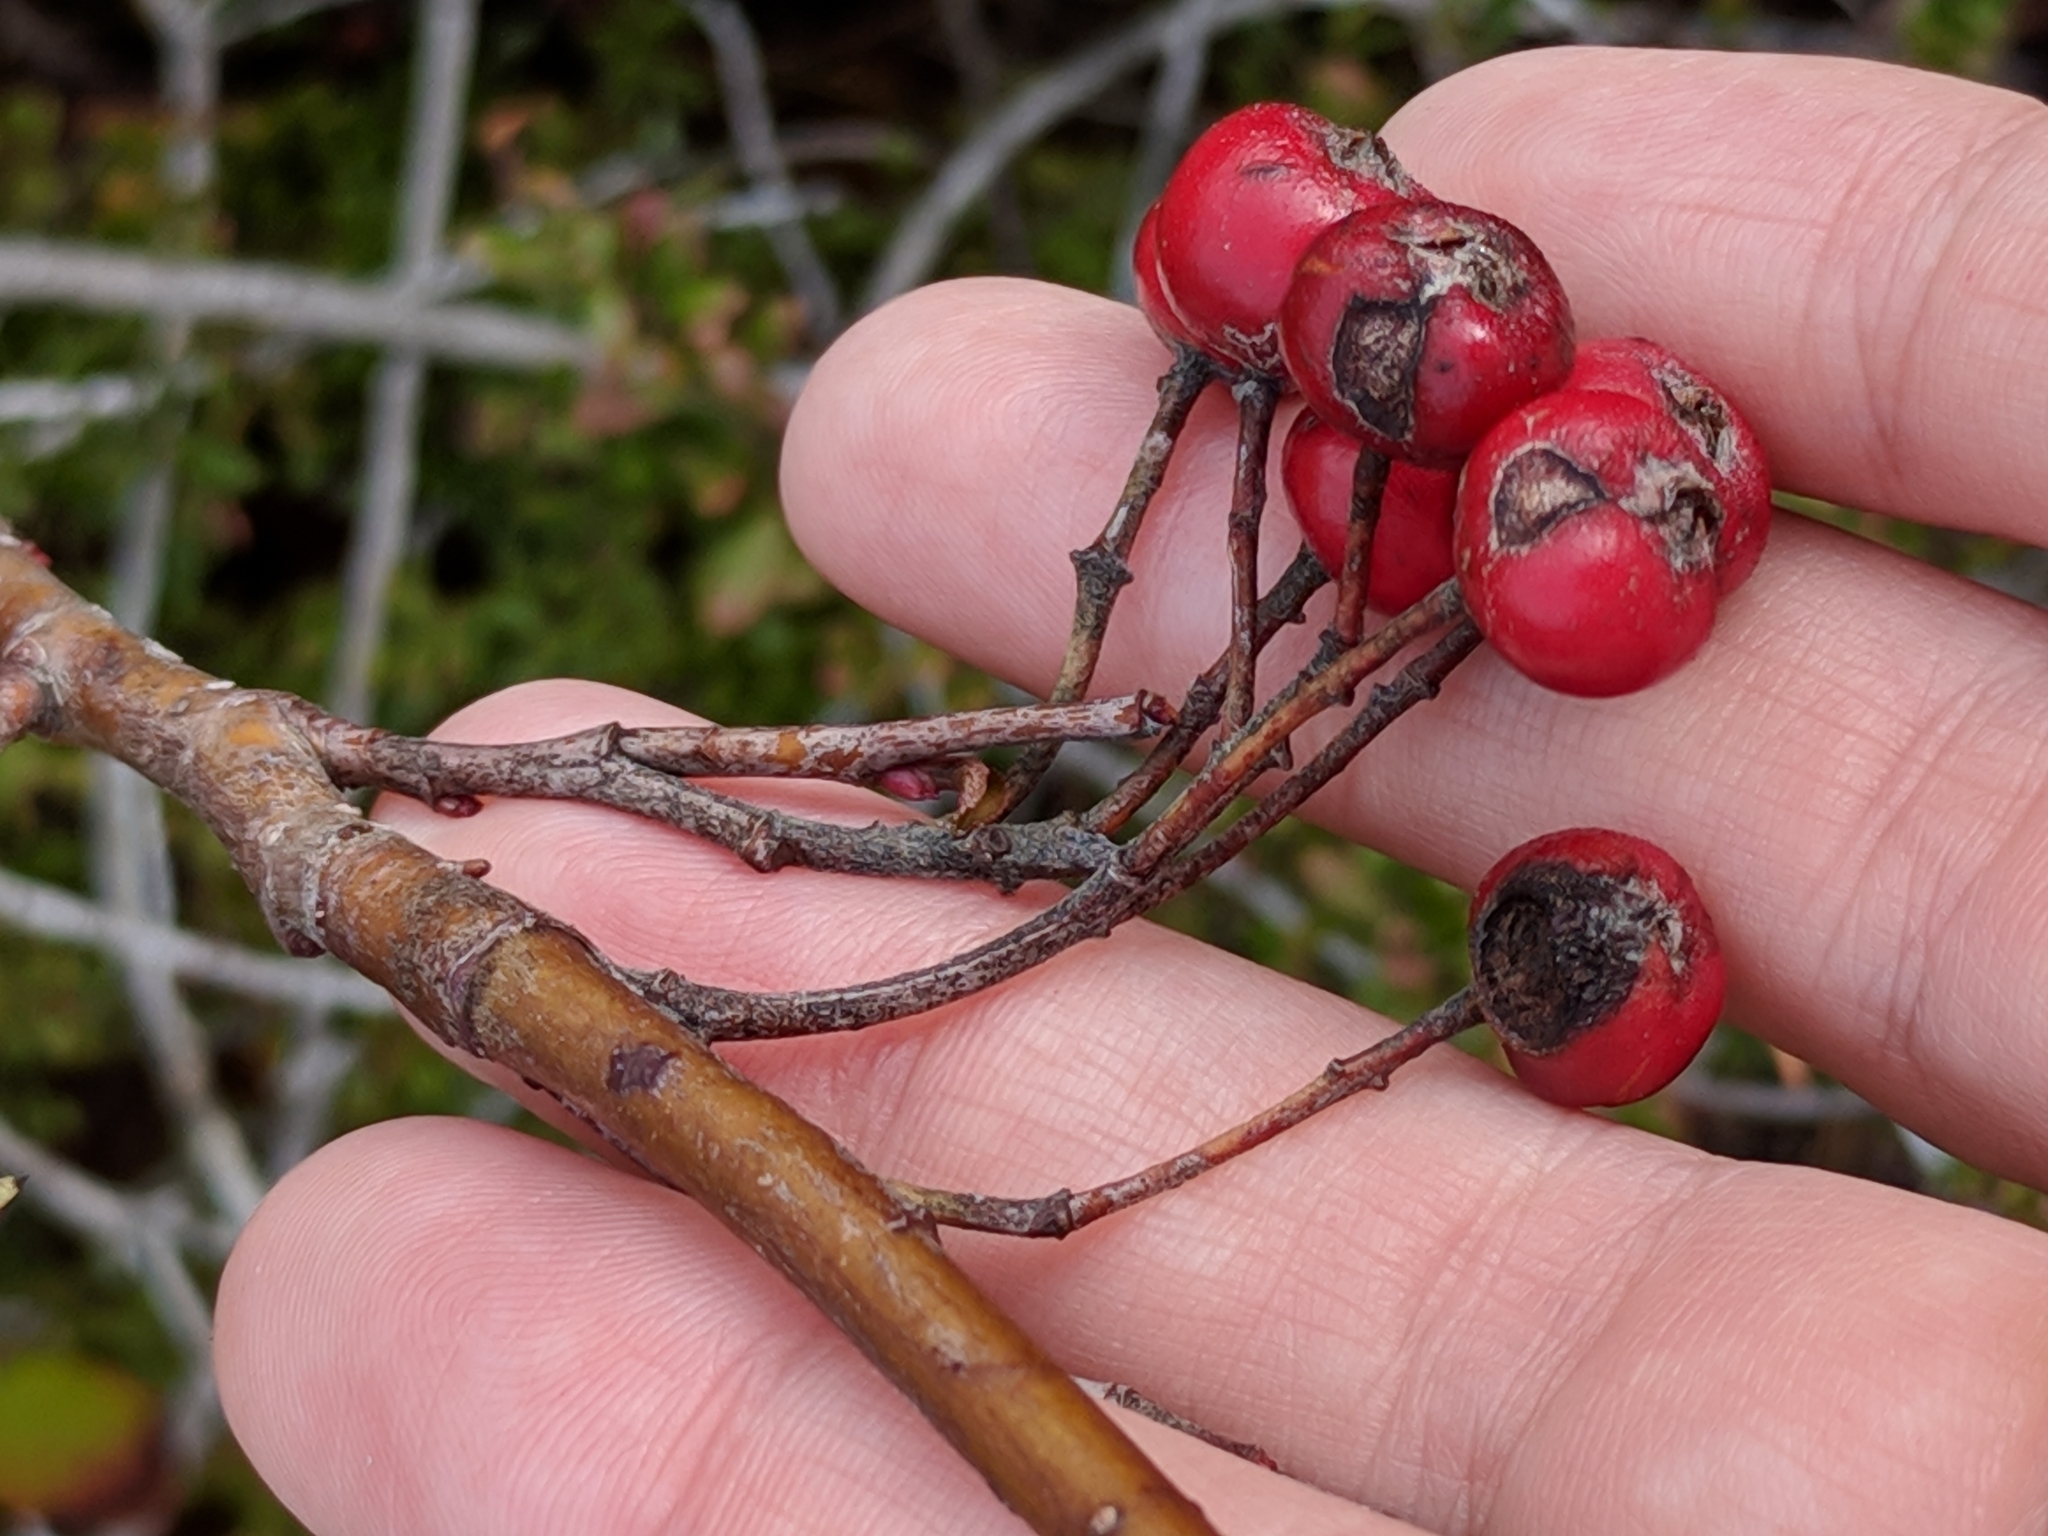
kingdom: Plantae
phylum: Tracheophyta
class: Magnoliopsida
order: Rosales
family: Rosaceae
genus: Aronia
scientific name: Aronia arbutifolia
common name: Red chokeberry
